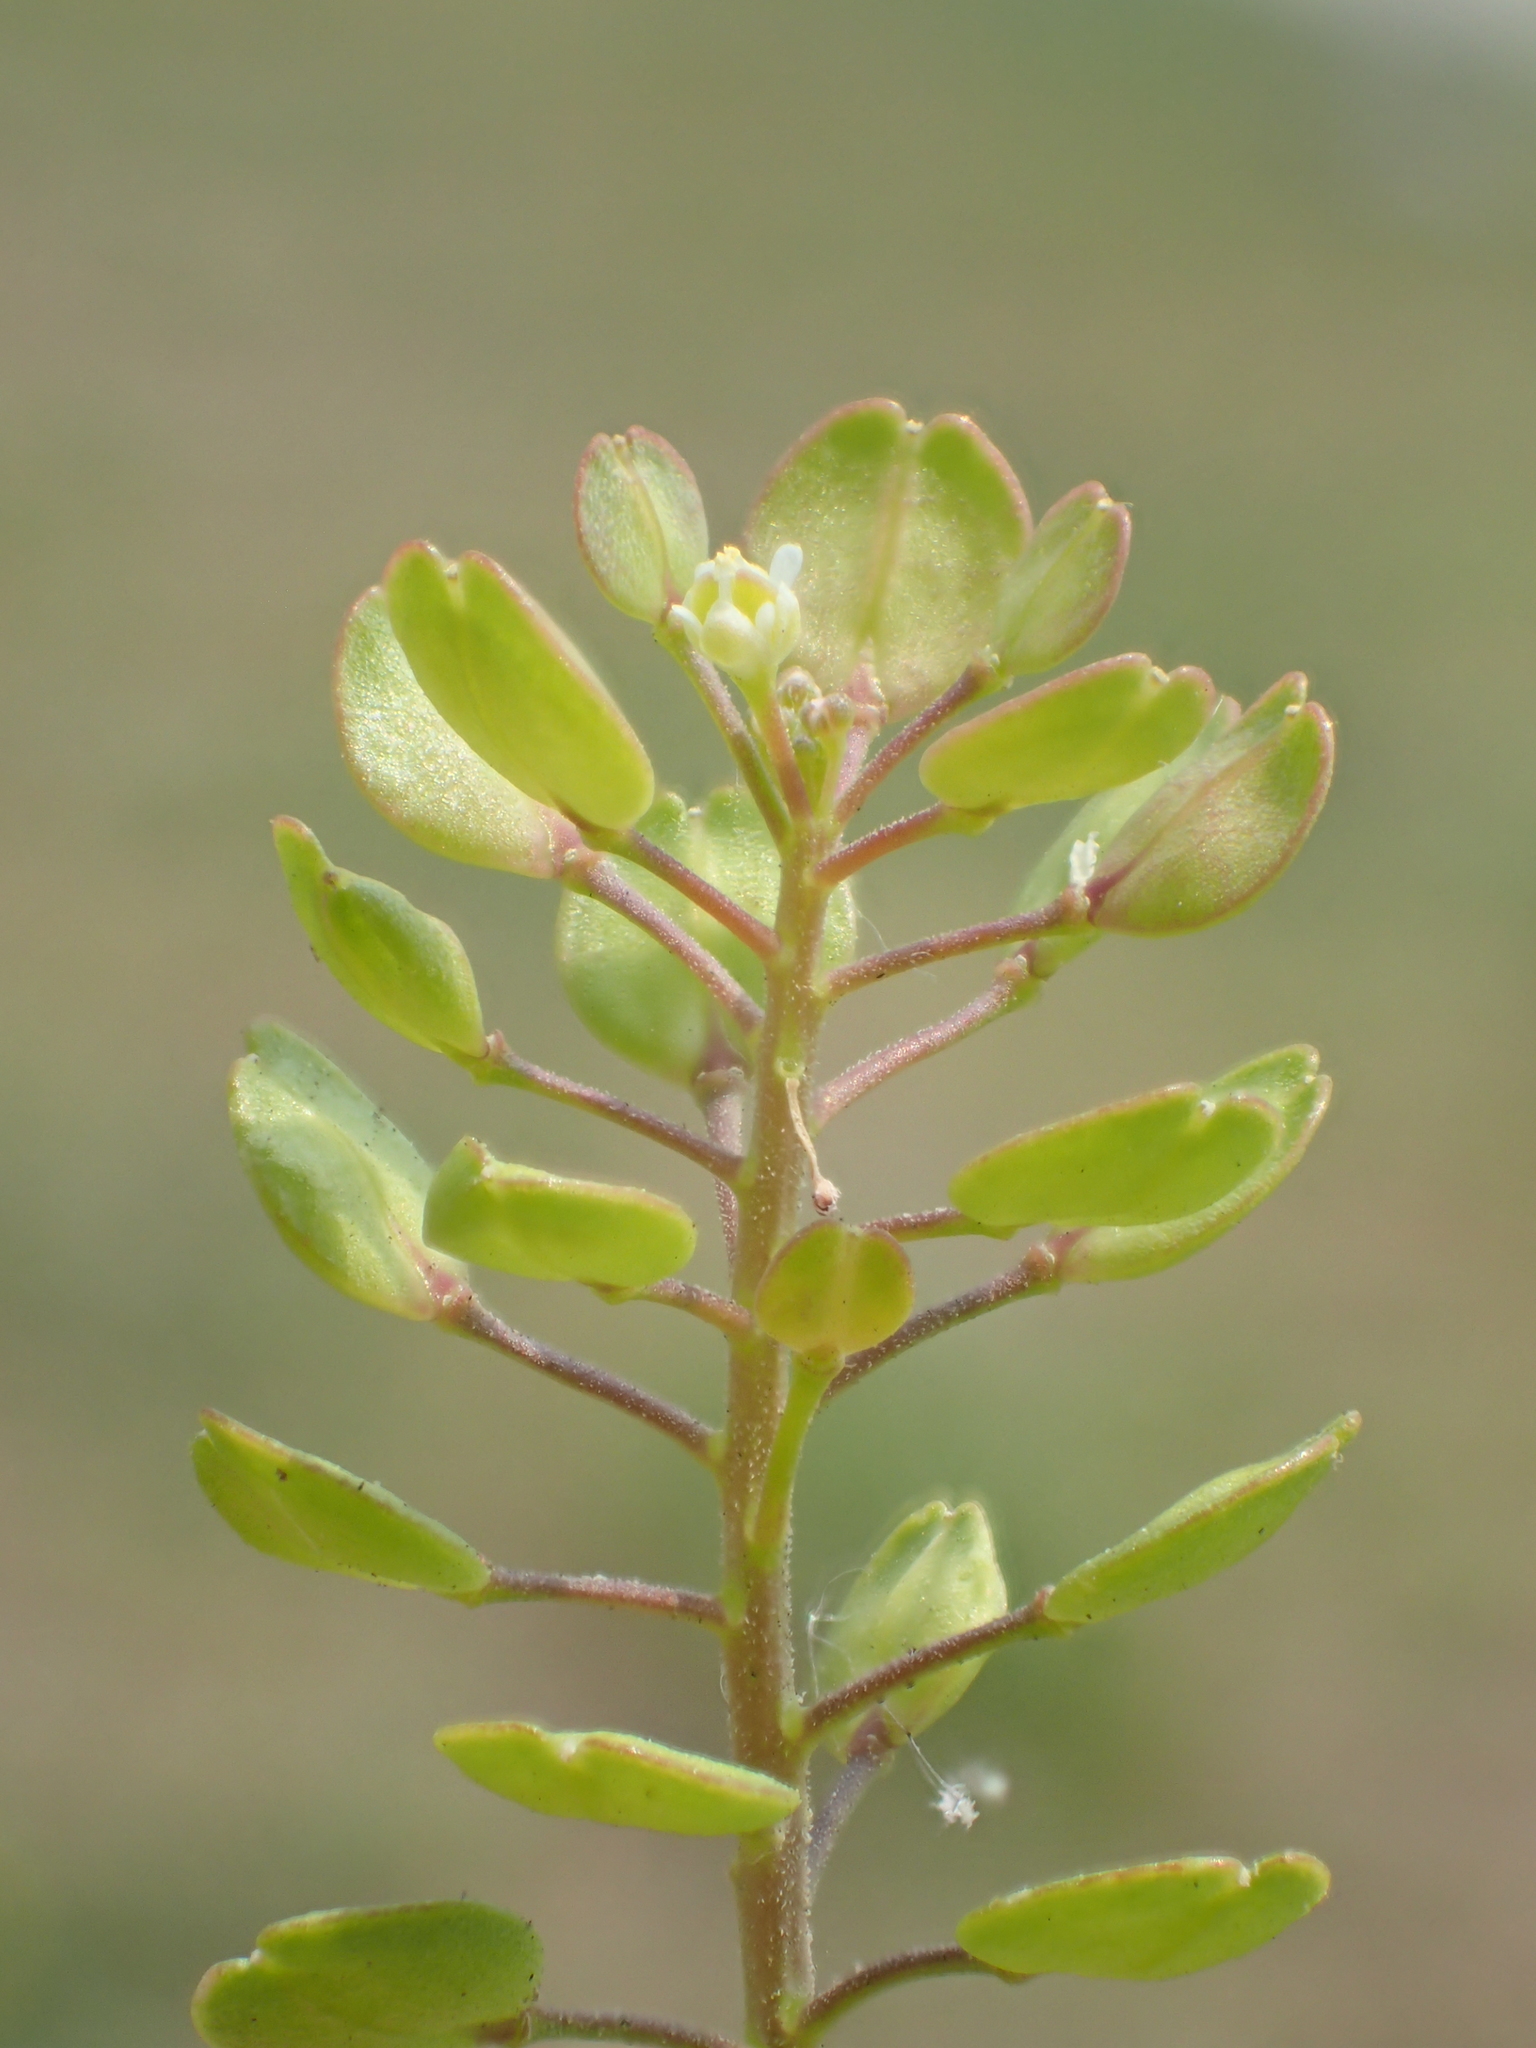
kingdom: Plantae
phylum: Tracheophyta
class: Magnoliopsida
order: Brassicales
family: Brassicaceae
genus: Lepidium
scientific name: Lepidium virginicum
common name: Least pepperwort
